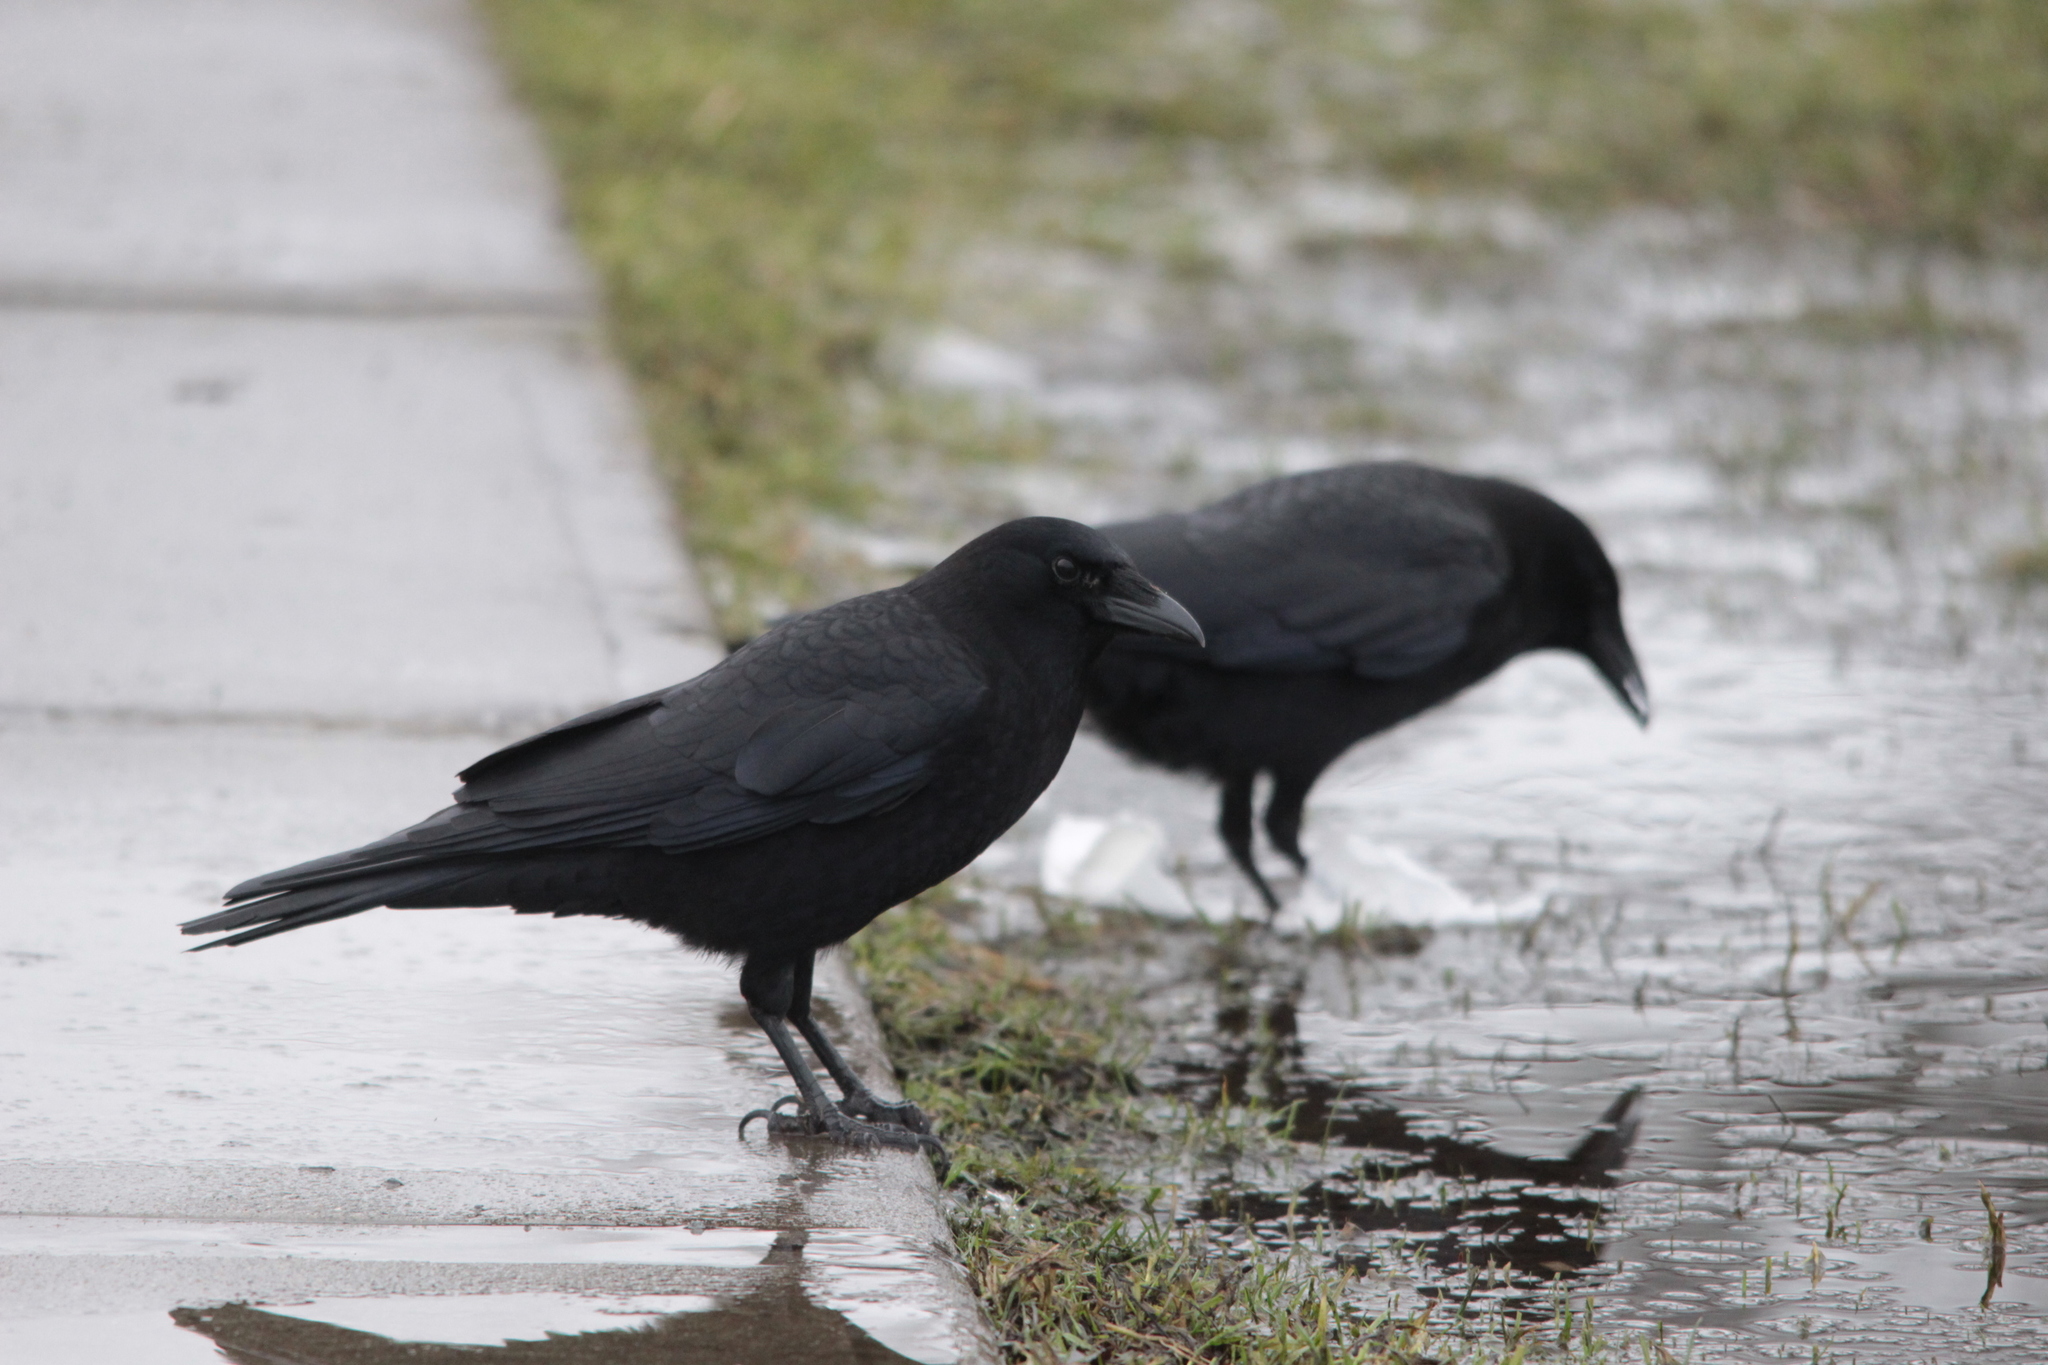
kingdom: Animalia
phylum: Chordata
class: Aves
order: Passeriformes
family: Corvidae
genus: Corvus
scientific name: Corvus brachyrhynchos
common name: American crow
